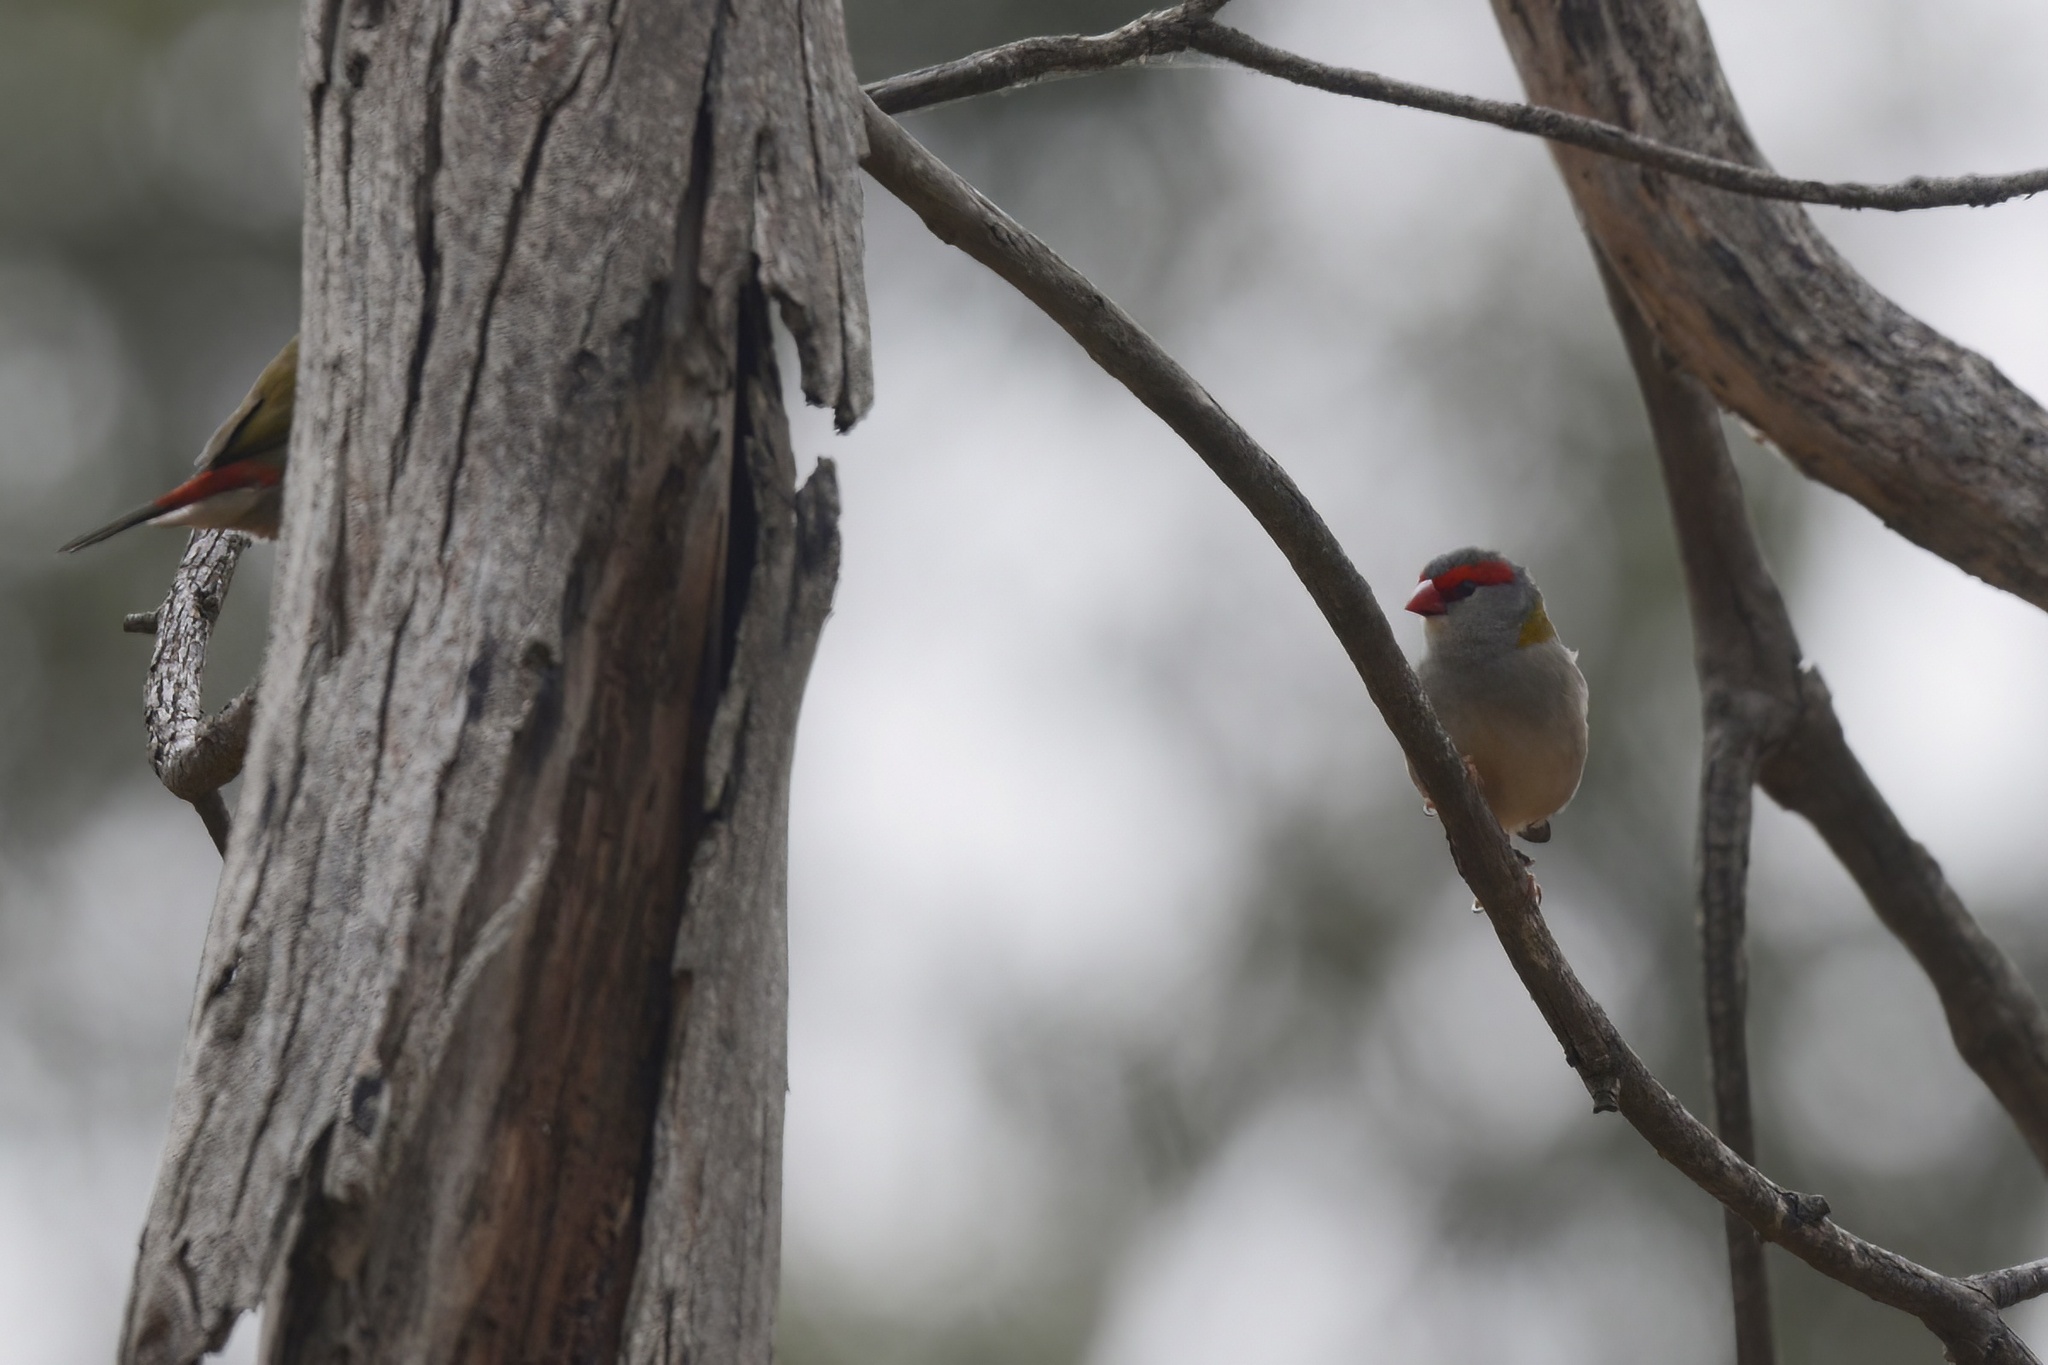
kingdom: Animalia
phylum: Chordata
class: Aves
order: Passeriformes
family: Estrildidae
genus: Neochmia
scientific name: Neochmia temporalis
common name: Red-browed finch
